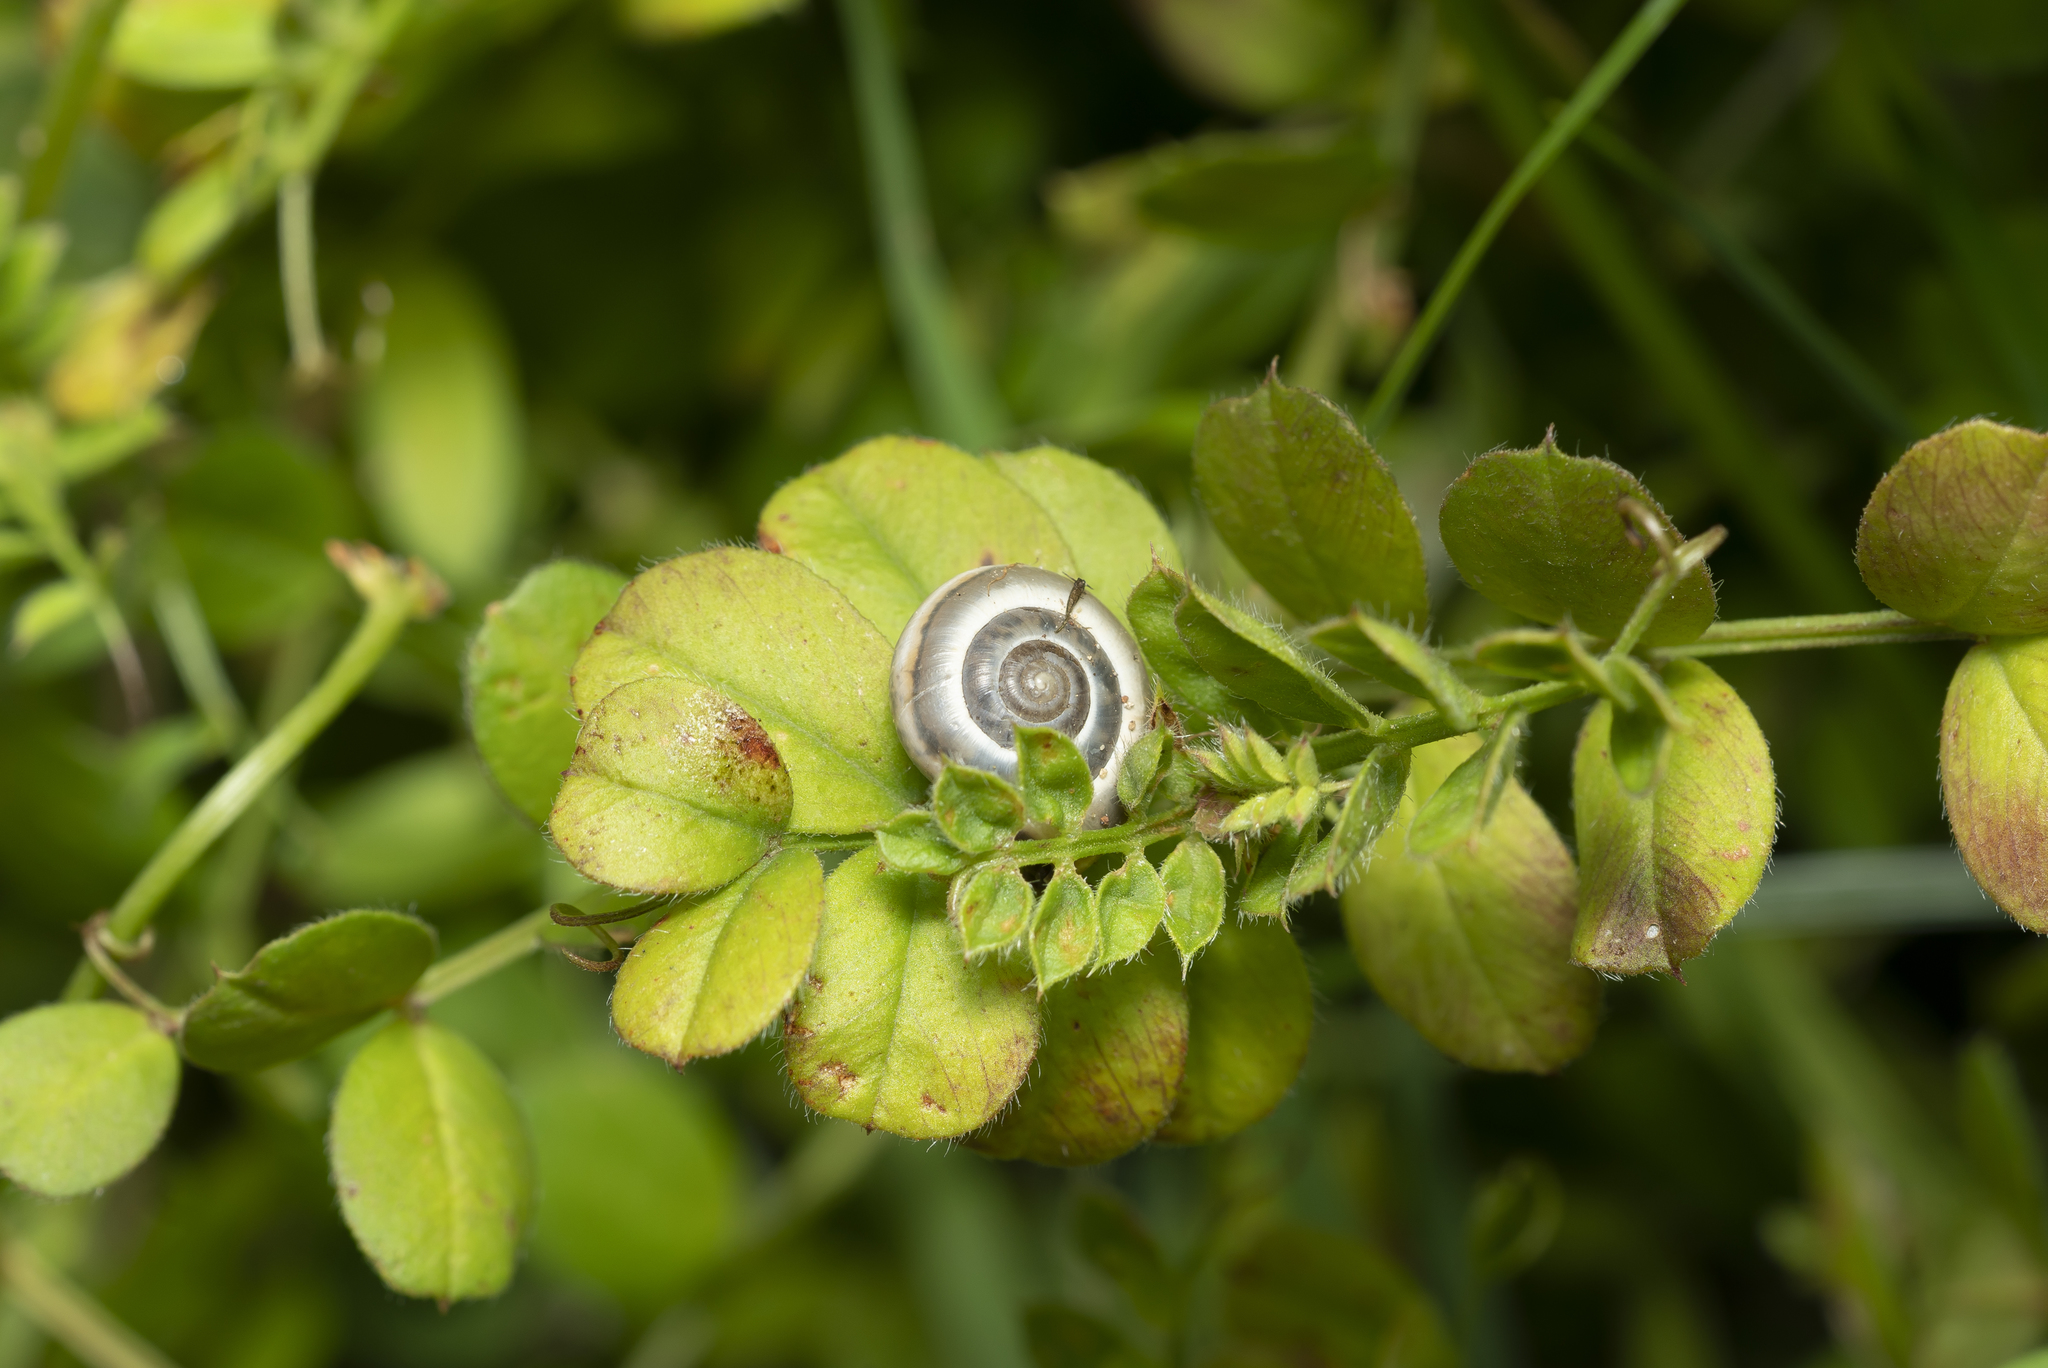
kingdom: Animalia
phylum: Mollusca
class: Gastropoda
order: Stylommatophora
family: Hygromiidae
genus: Monacha
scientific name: Monacha syriaca
